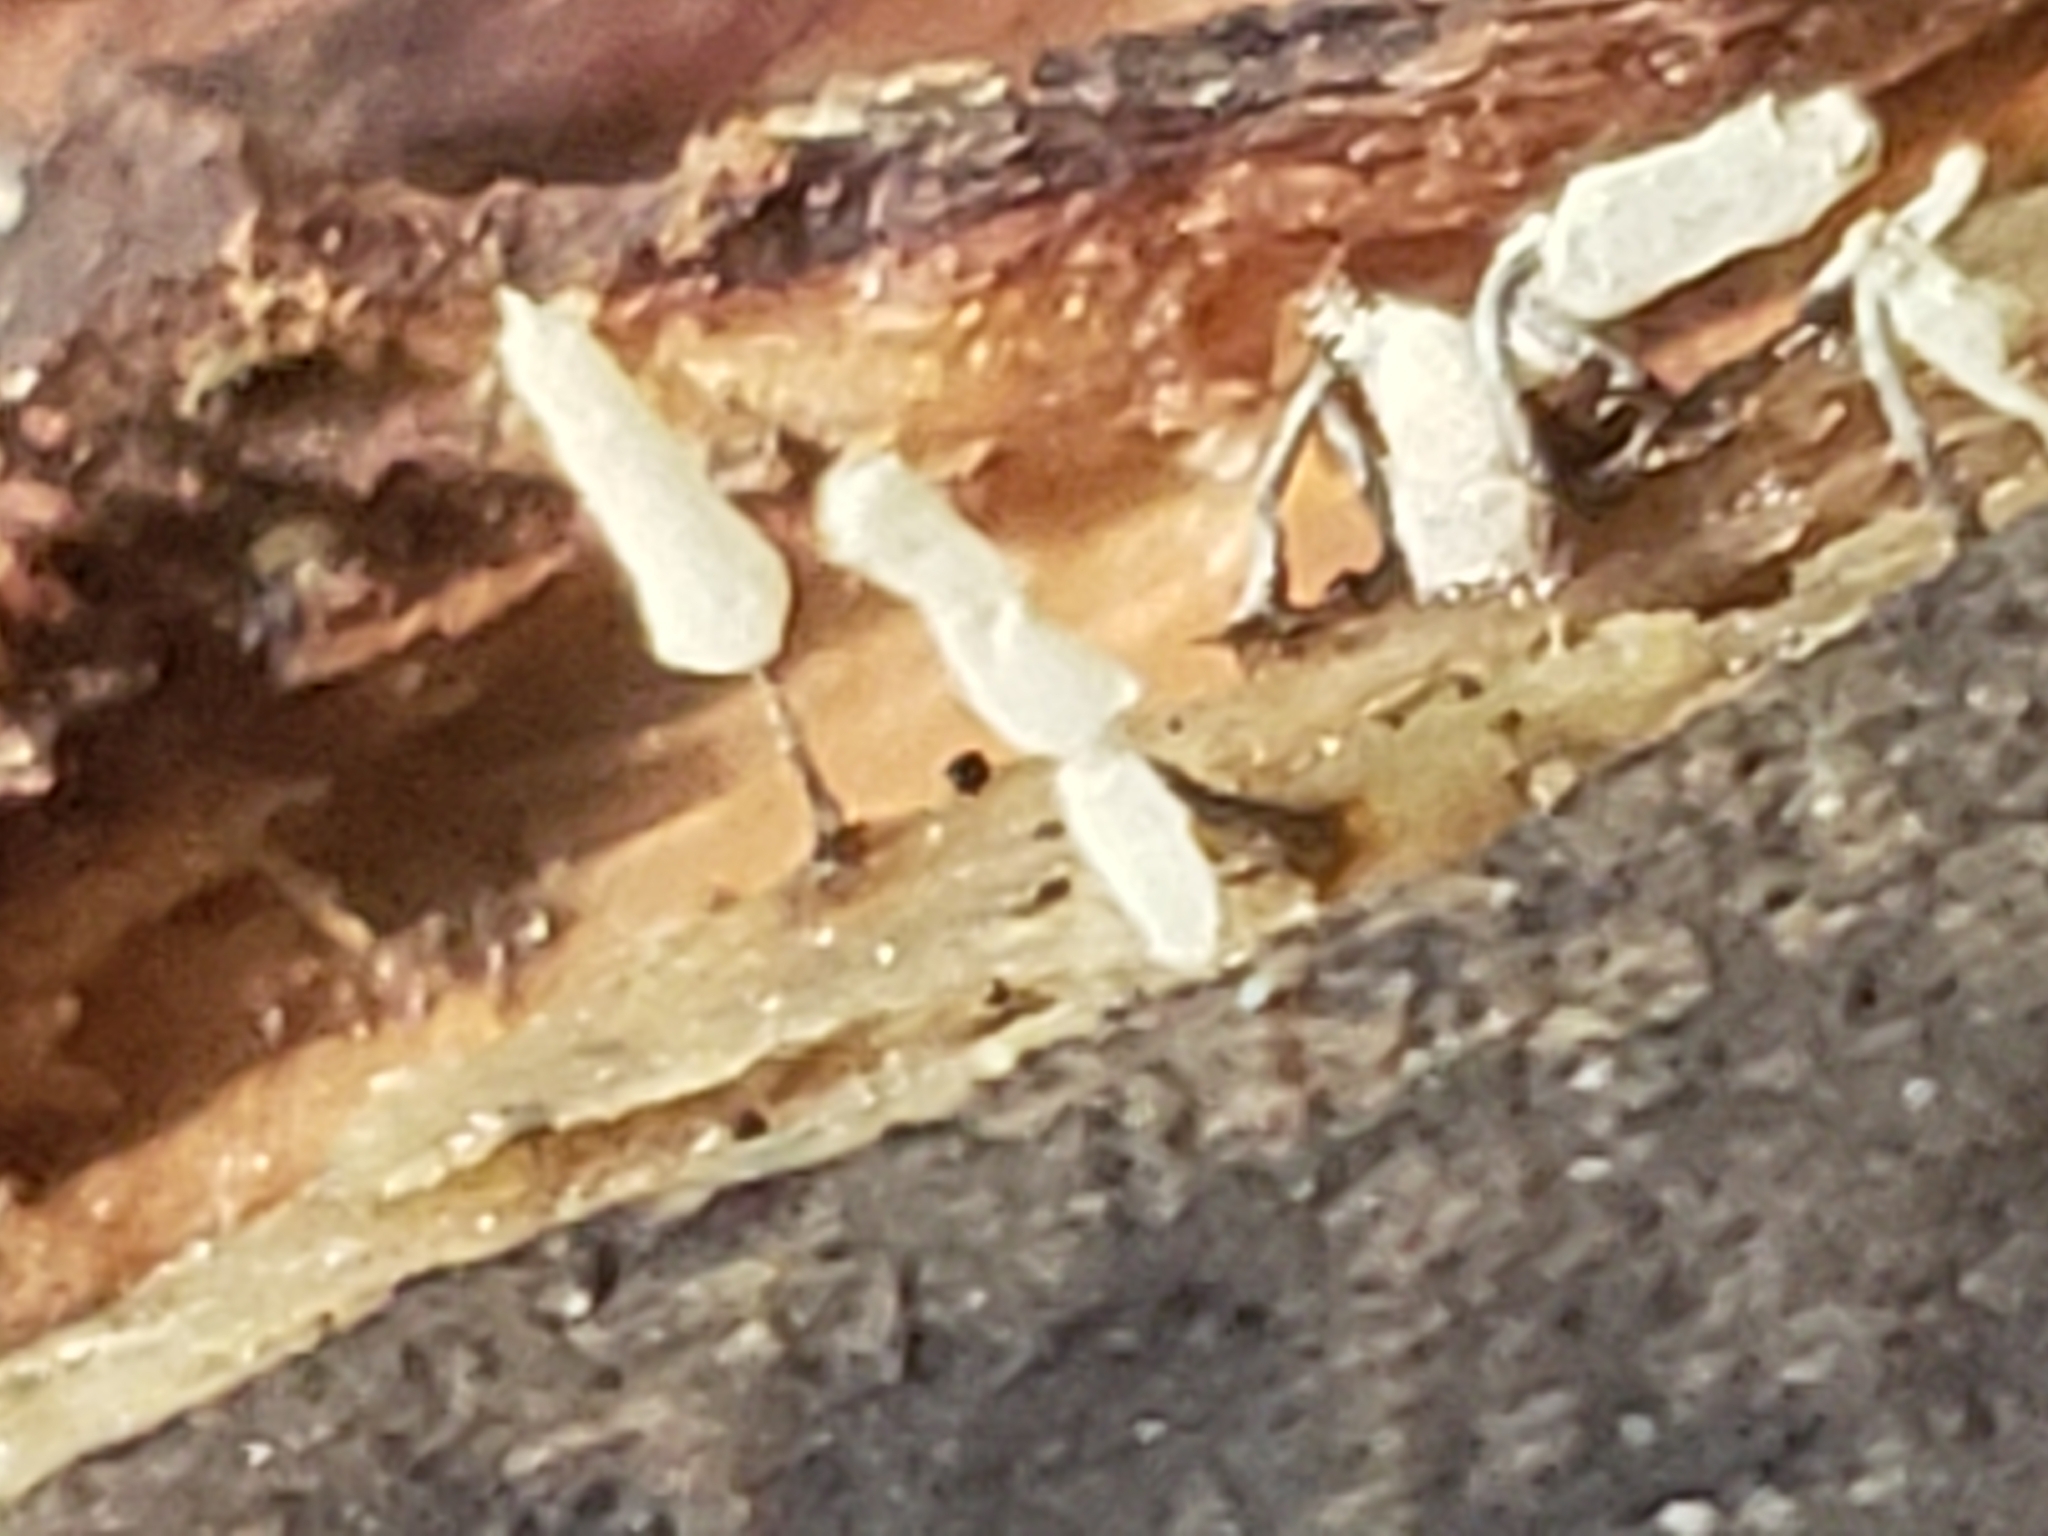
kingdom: Protozoa
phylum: Mycetozoa
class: Myxomycetes
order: Trichiales
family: Arcyriaceae
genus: Arcyria
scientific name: Arcyria cinerea
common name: White carnival candy slime mold
